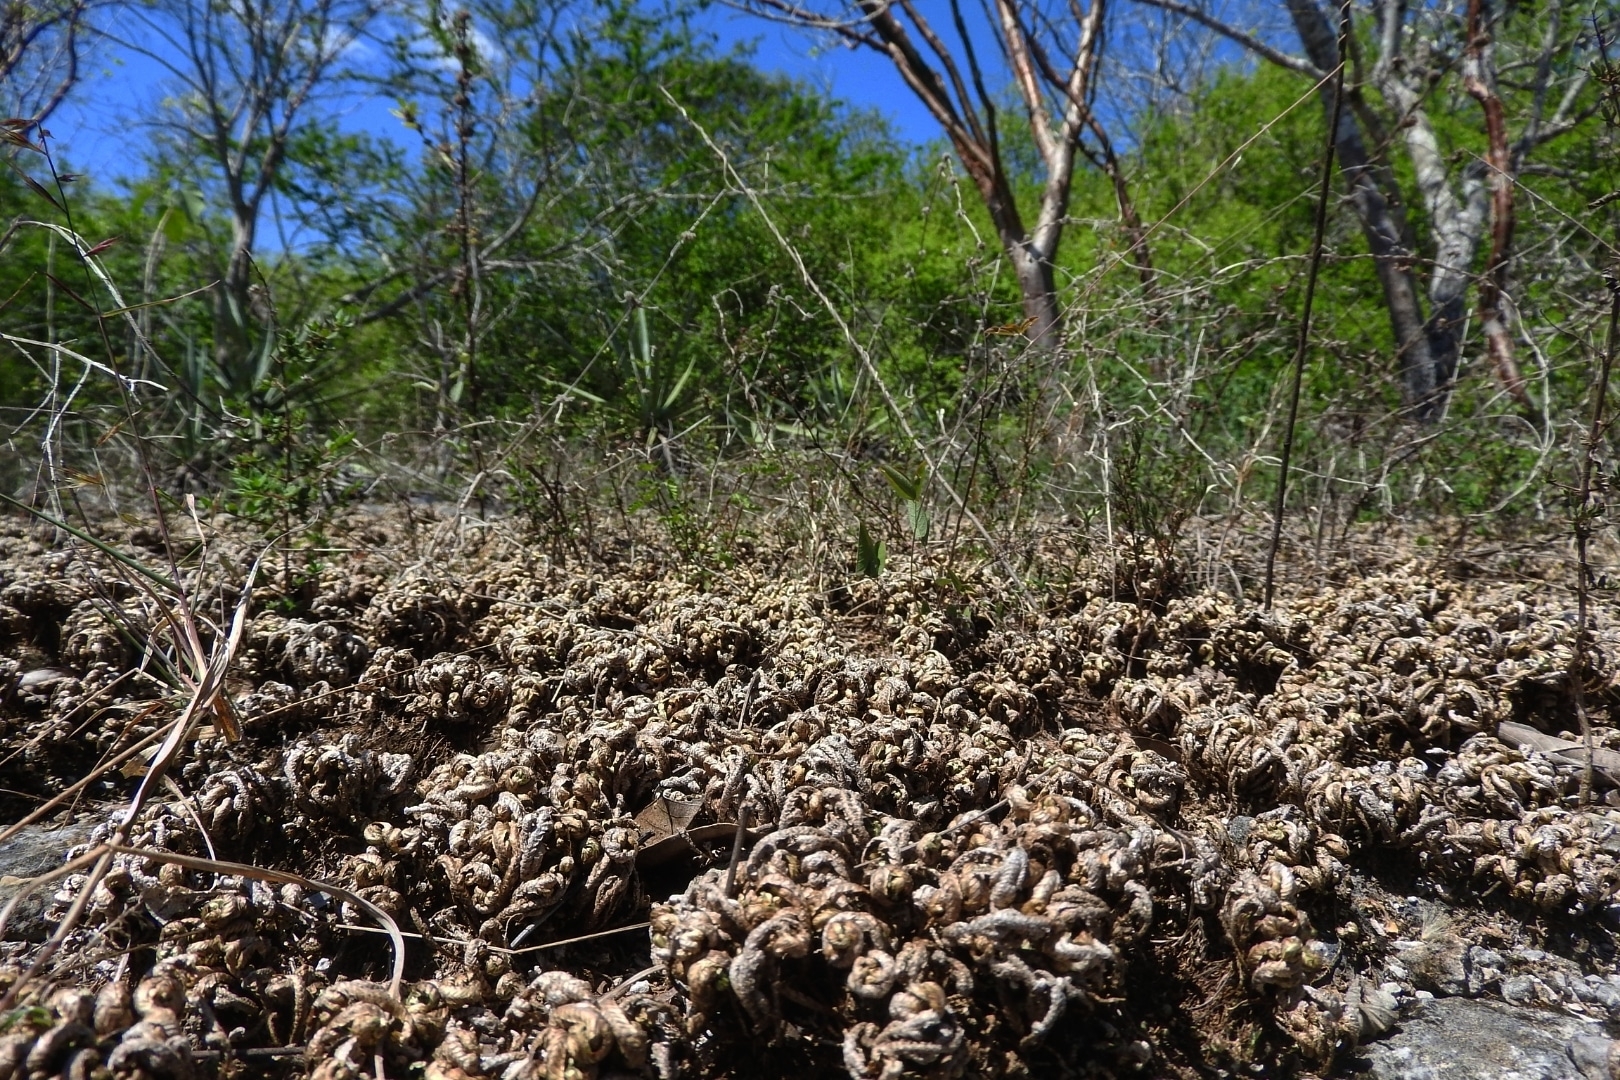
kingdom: Plantae
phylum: Tracheophyta
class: Lycopodiopsida
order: Selaginellales
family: Selaginellaceae
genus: Selaginella
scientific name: Selaginella convoluta
